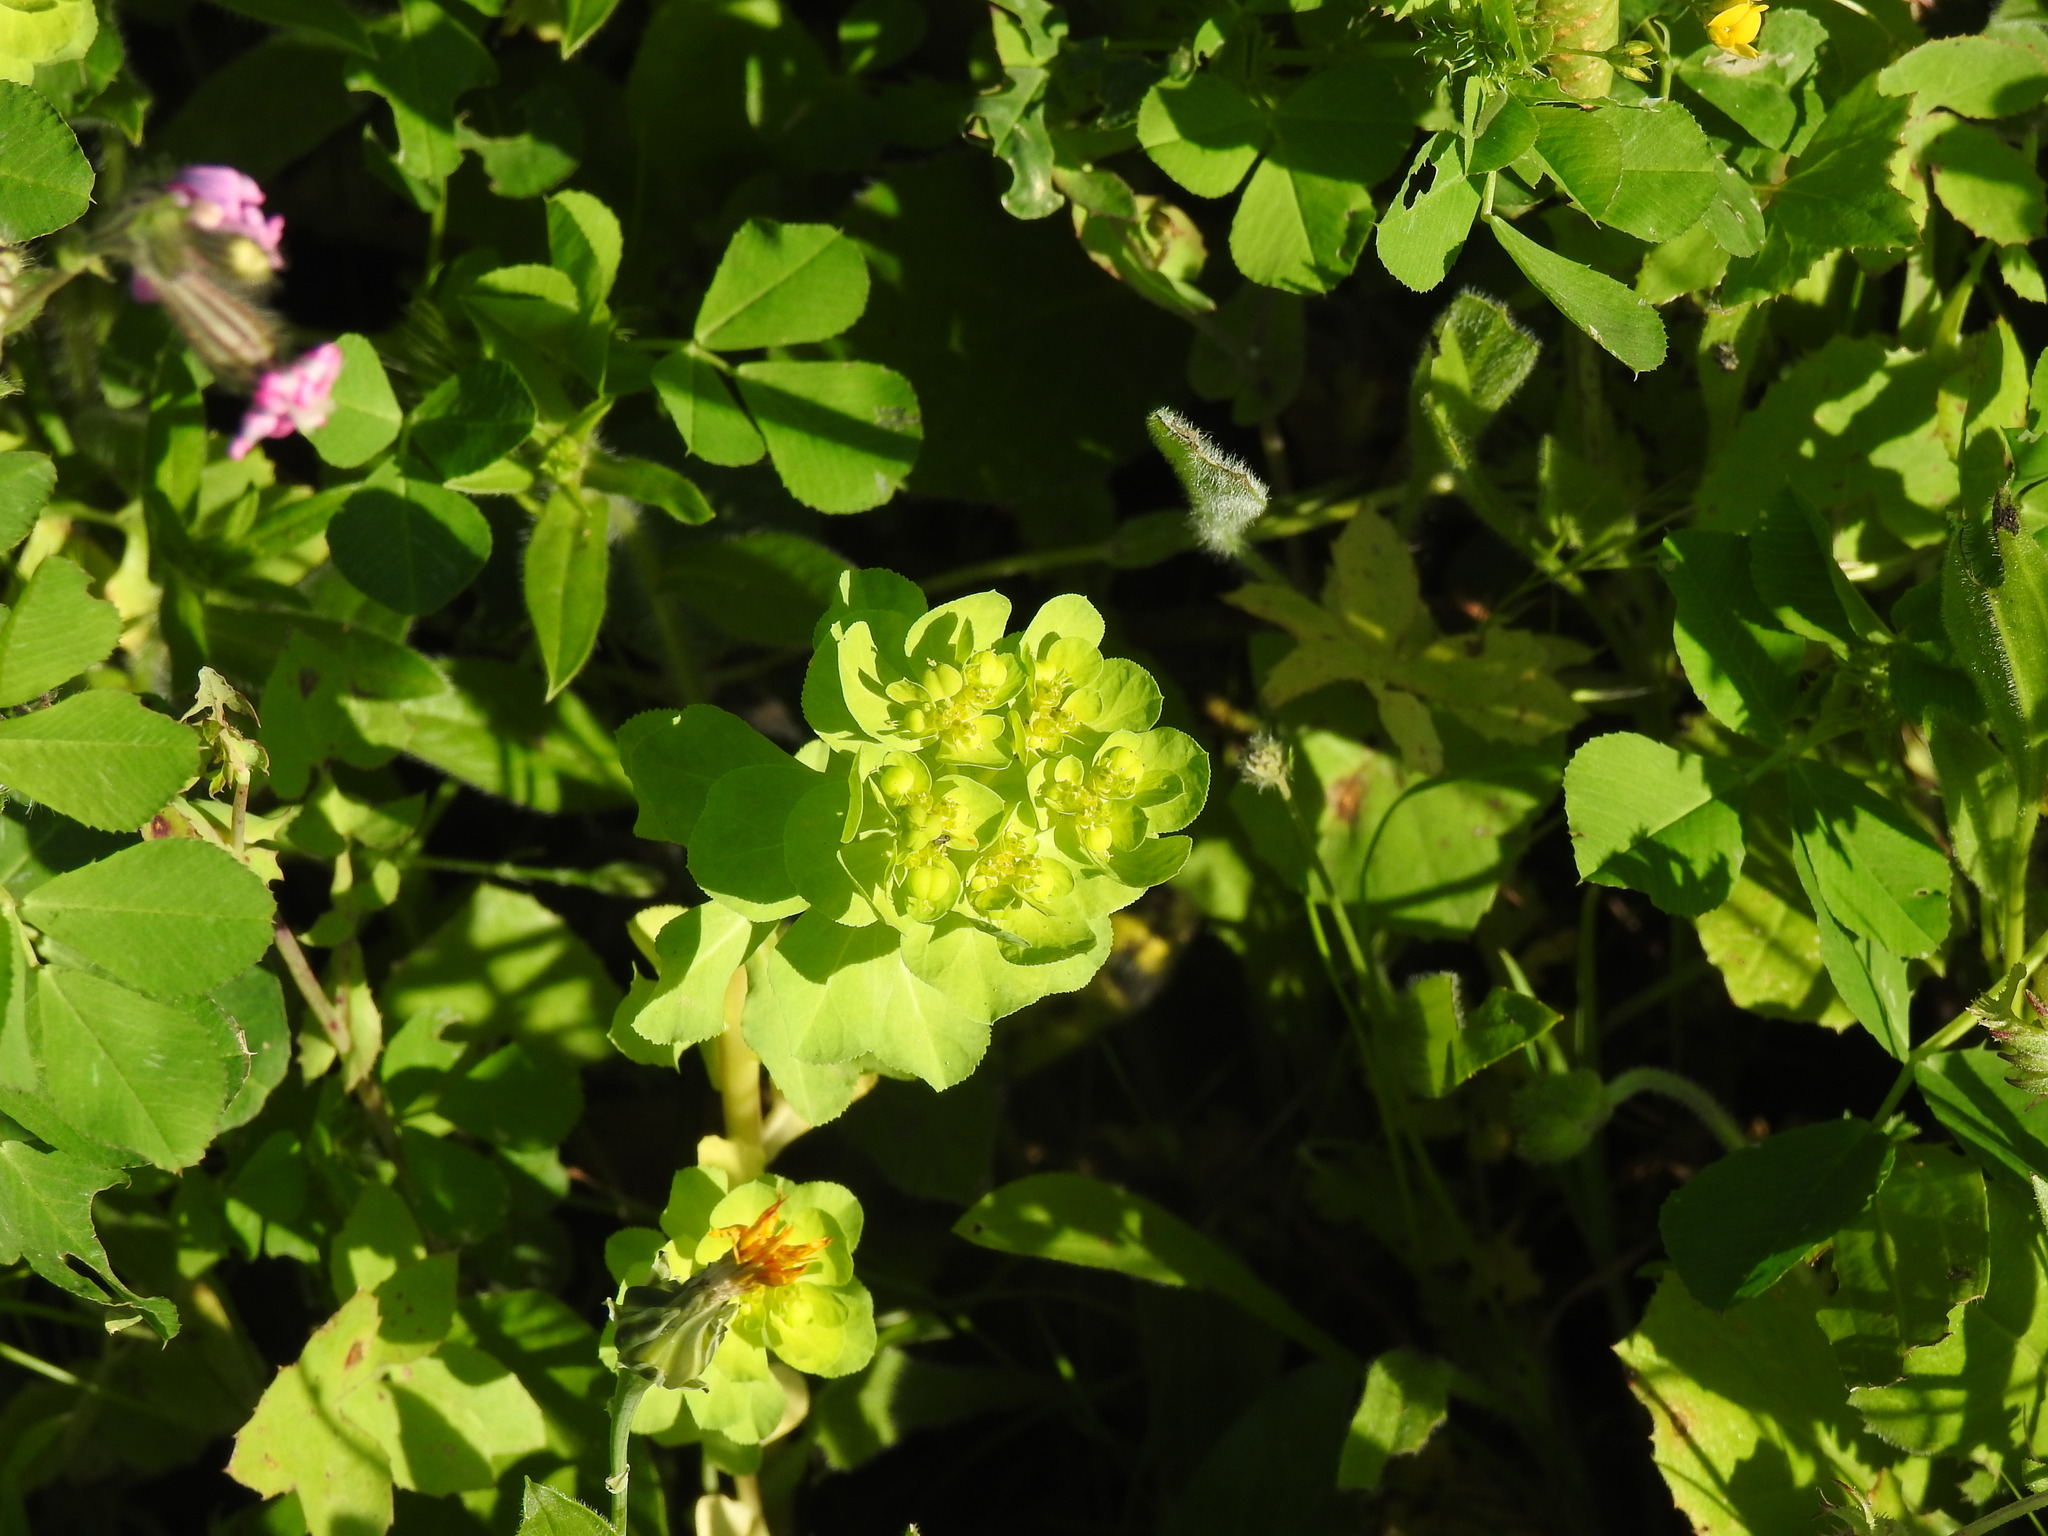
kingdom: Plantae
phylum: Tracheophyta
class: Magnoliopsida
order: Malpighiales
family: Euphorbiaceae
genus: Euphorbia
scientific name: Euphorbia helioscopia
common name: Sun spurge
